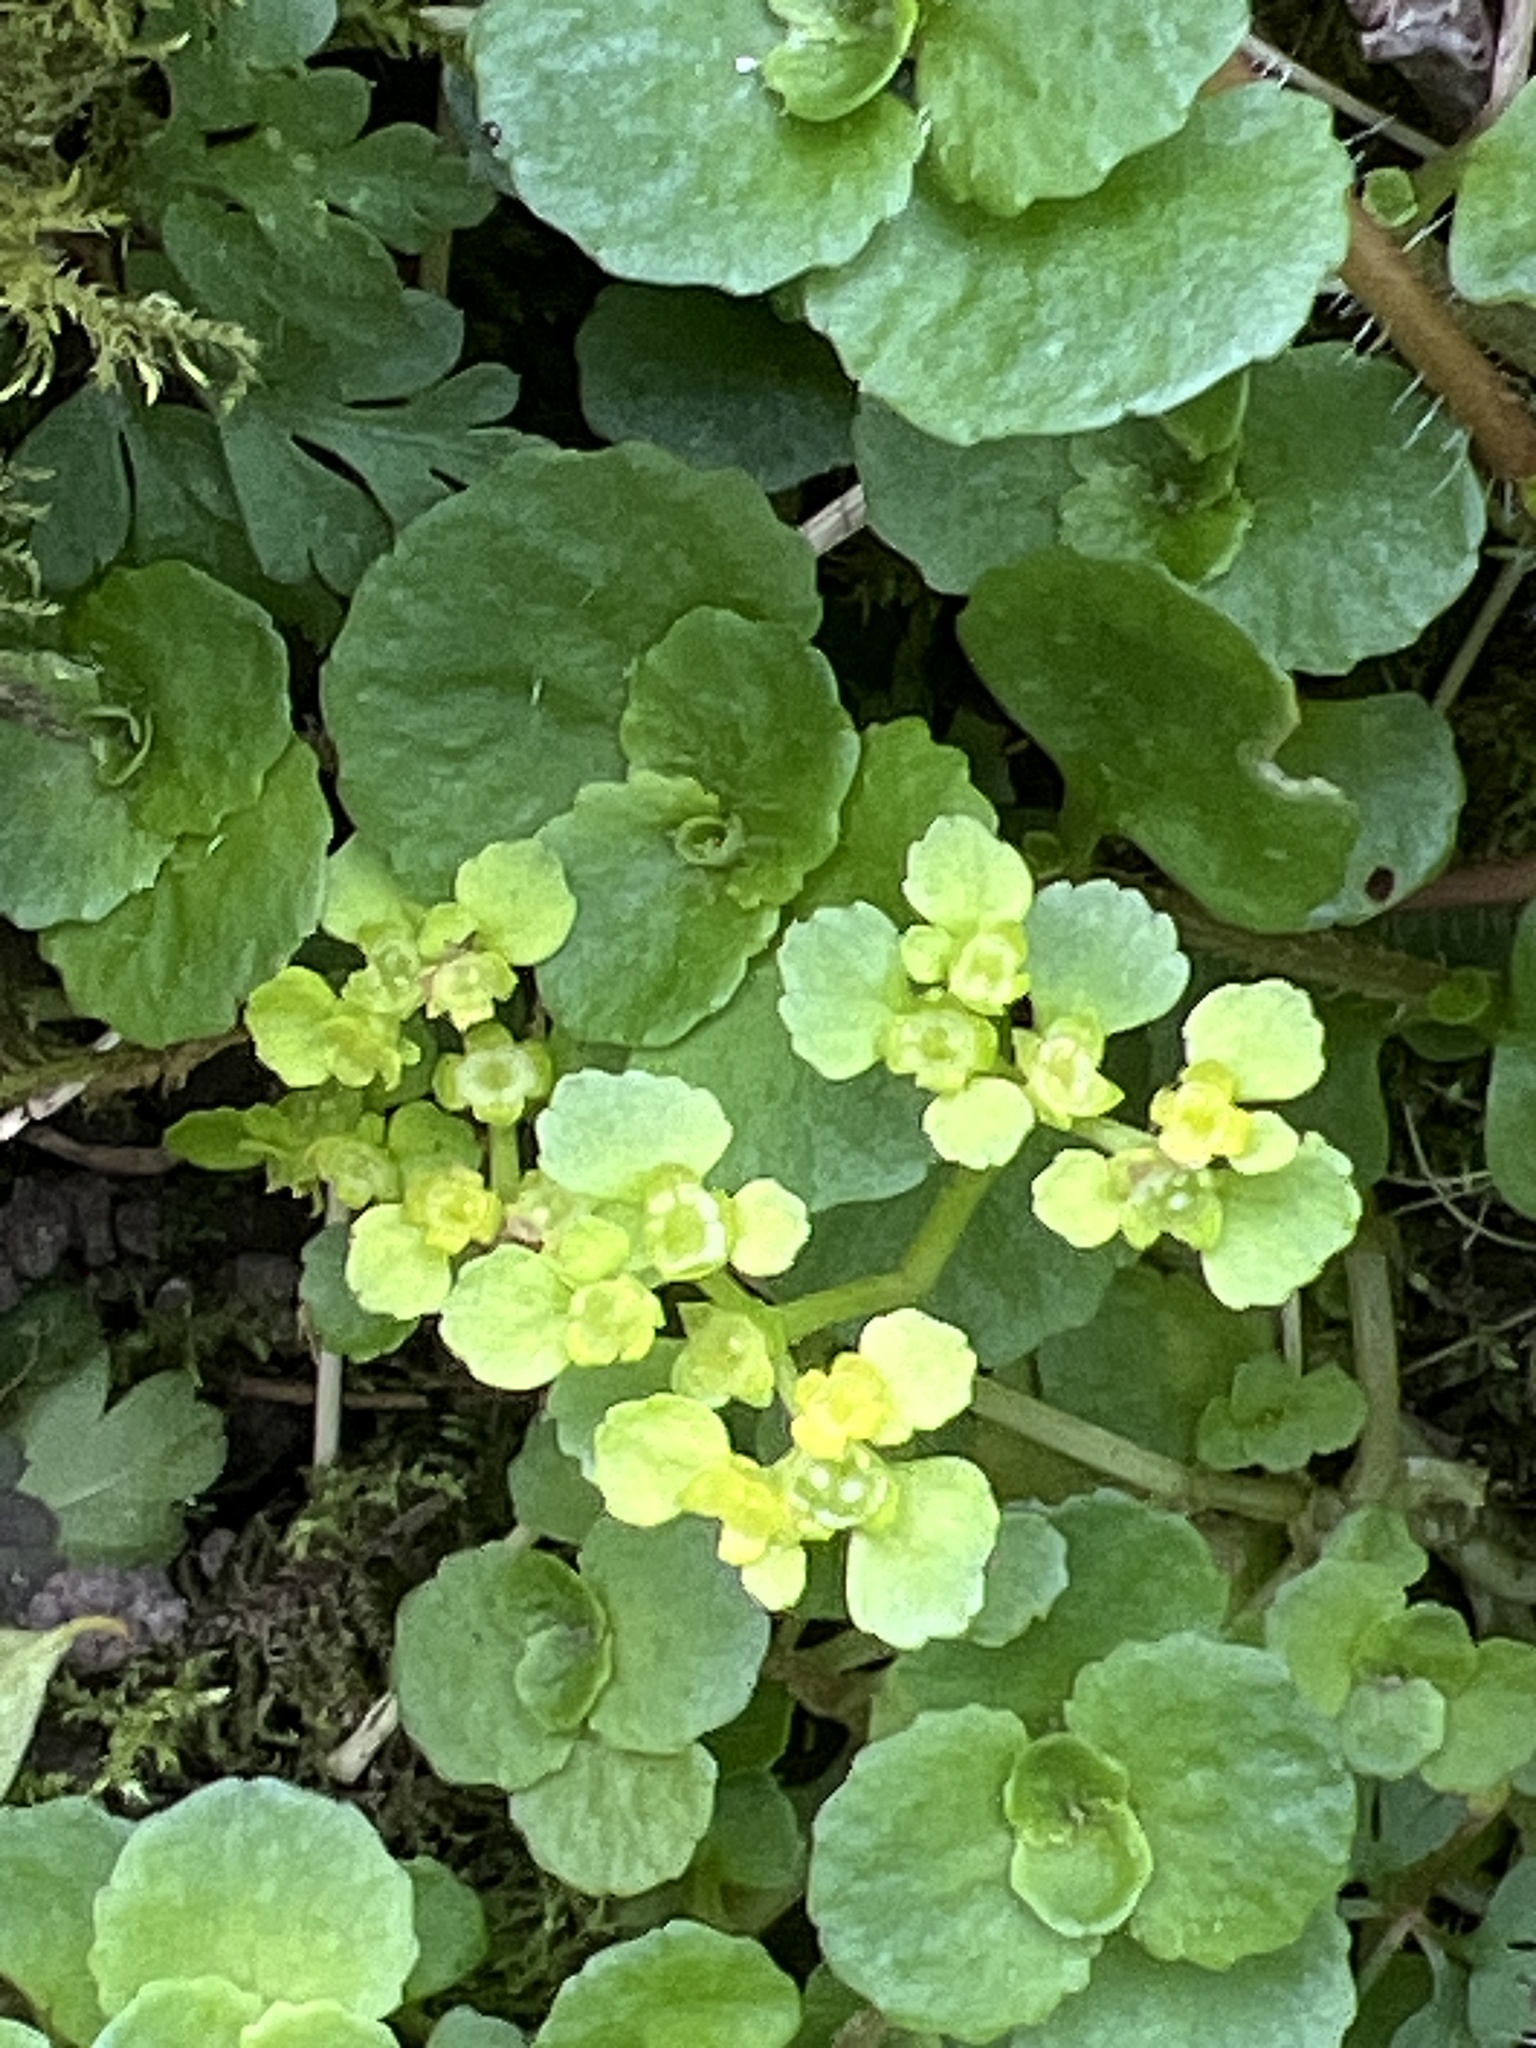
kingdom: Plantae
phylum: Tracheophyta
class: Magnoliopsida
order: Saxifragales
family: Saxifragaceae
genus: Chrysosplenium
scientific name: Chrysosplenium oppositifolium
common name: Opposite-leaved golden-saxifrage
